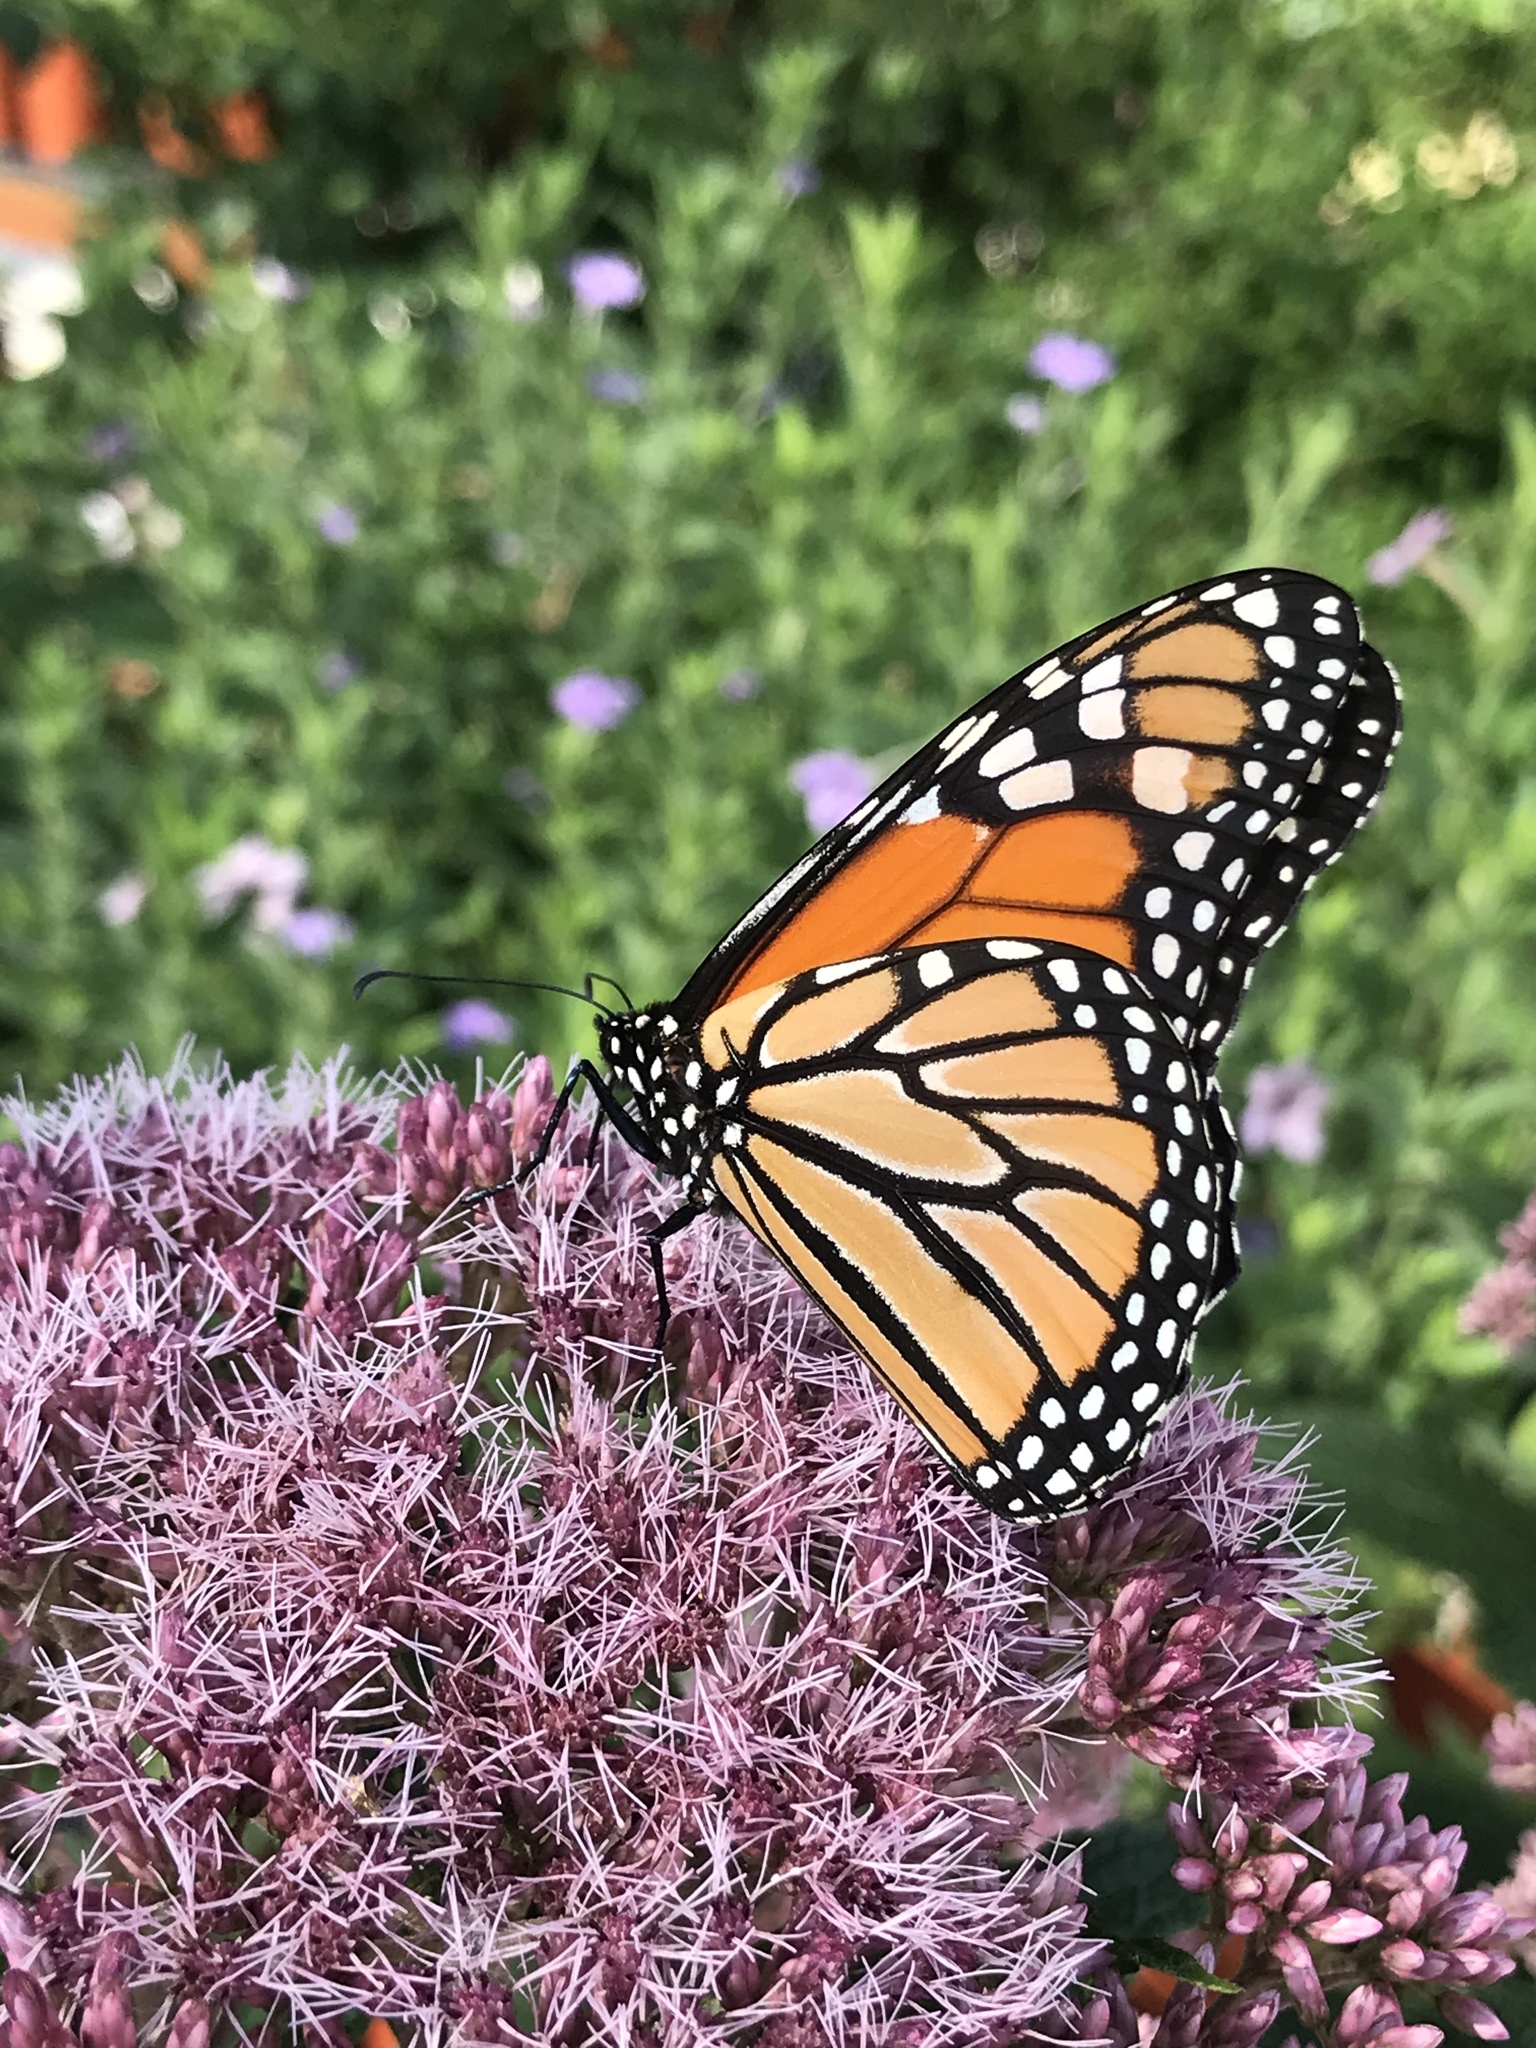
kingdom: Animalia
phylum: Arthropoda
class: Insecta
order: Lepidoptera
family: Nymphalidae
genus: Danaus
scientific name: Danaus plexippus
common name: Monarch
